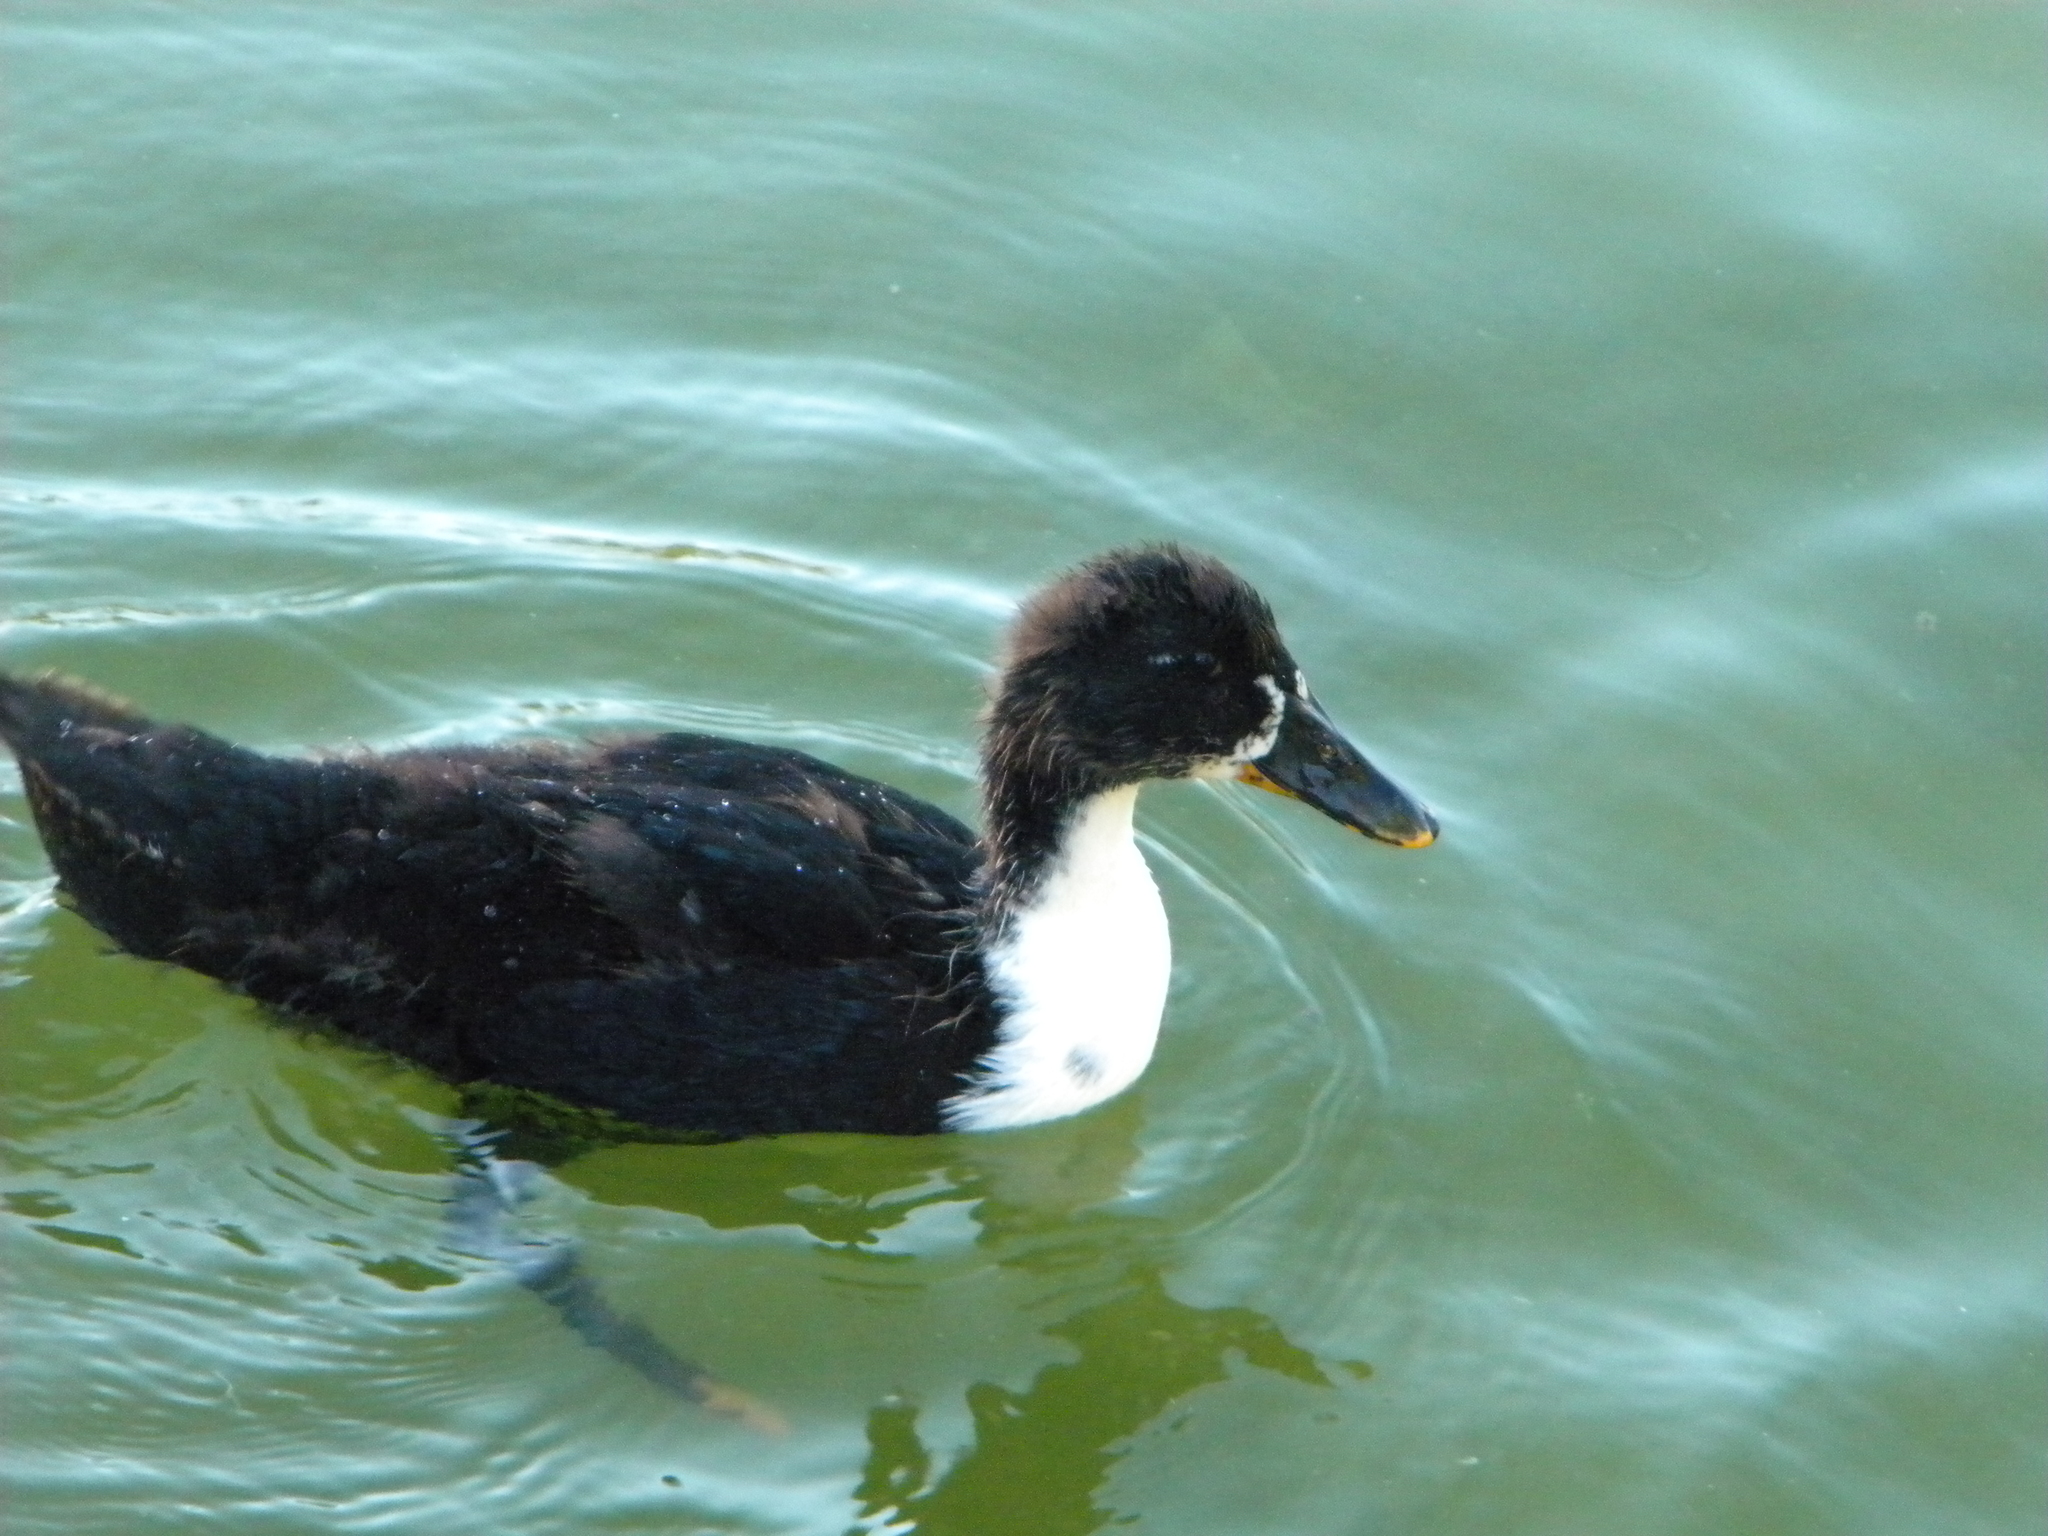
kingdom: Animalia
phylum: Chordata
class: Aves
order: Anseriformes
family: Anatidae
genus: Anas
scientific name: Anas platyrhynchos
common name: Mallard
